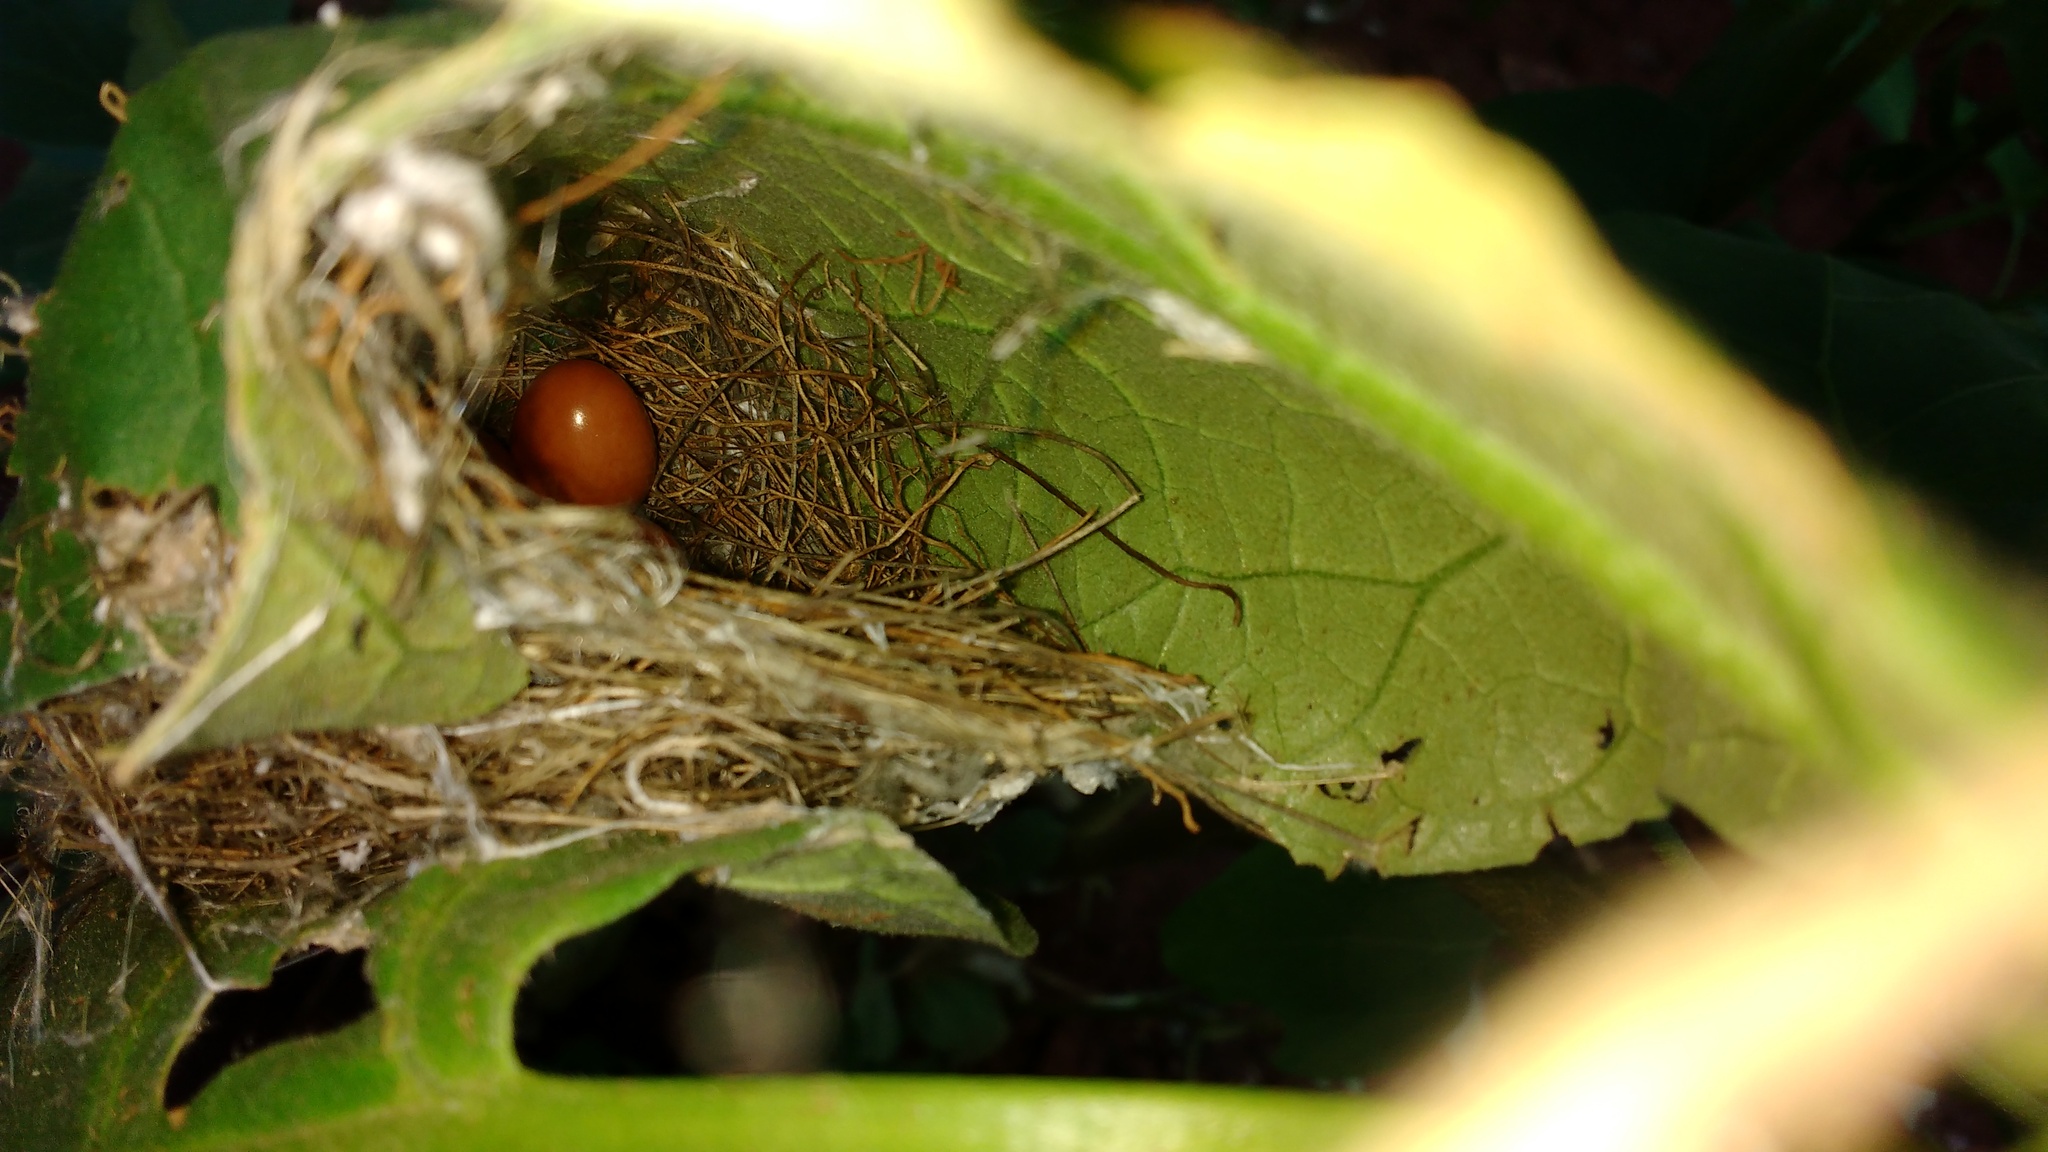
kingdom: Animalia
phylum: Chordata
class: Aves
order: Passeriformes
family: Cisticolidae
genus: Orthotomus
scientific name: Orthotomus sutorius
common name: Common tailorbird
